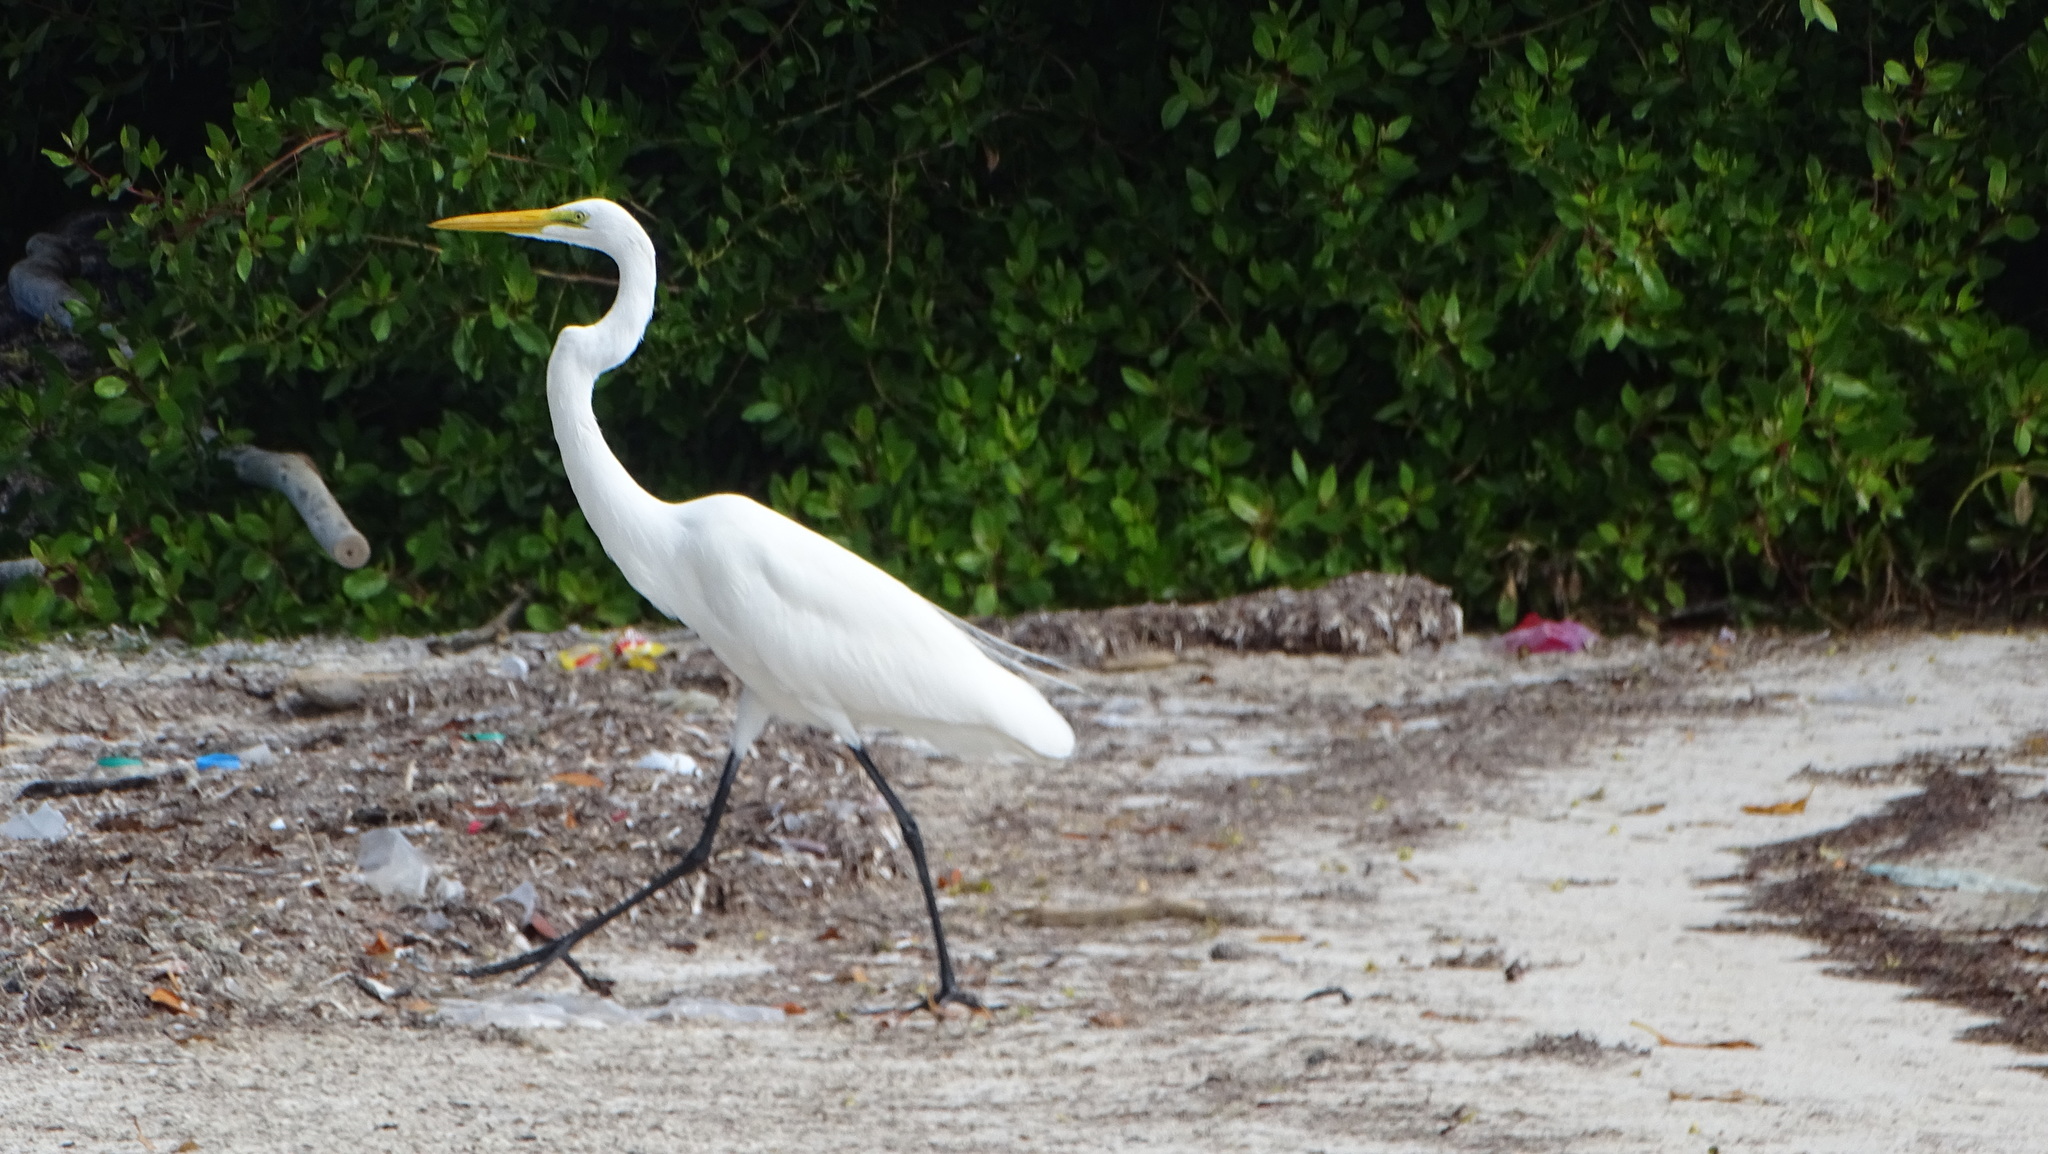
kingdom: Animalia
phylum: Chordata
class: Aves
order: Pelecaniformes
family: Ardeidae
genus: Ardea
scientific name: Ardea alba
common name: Great egret
